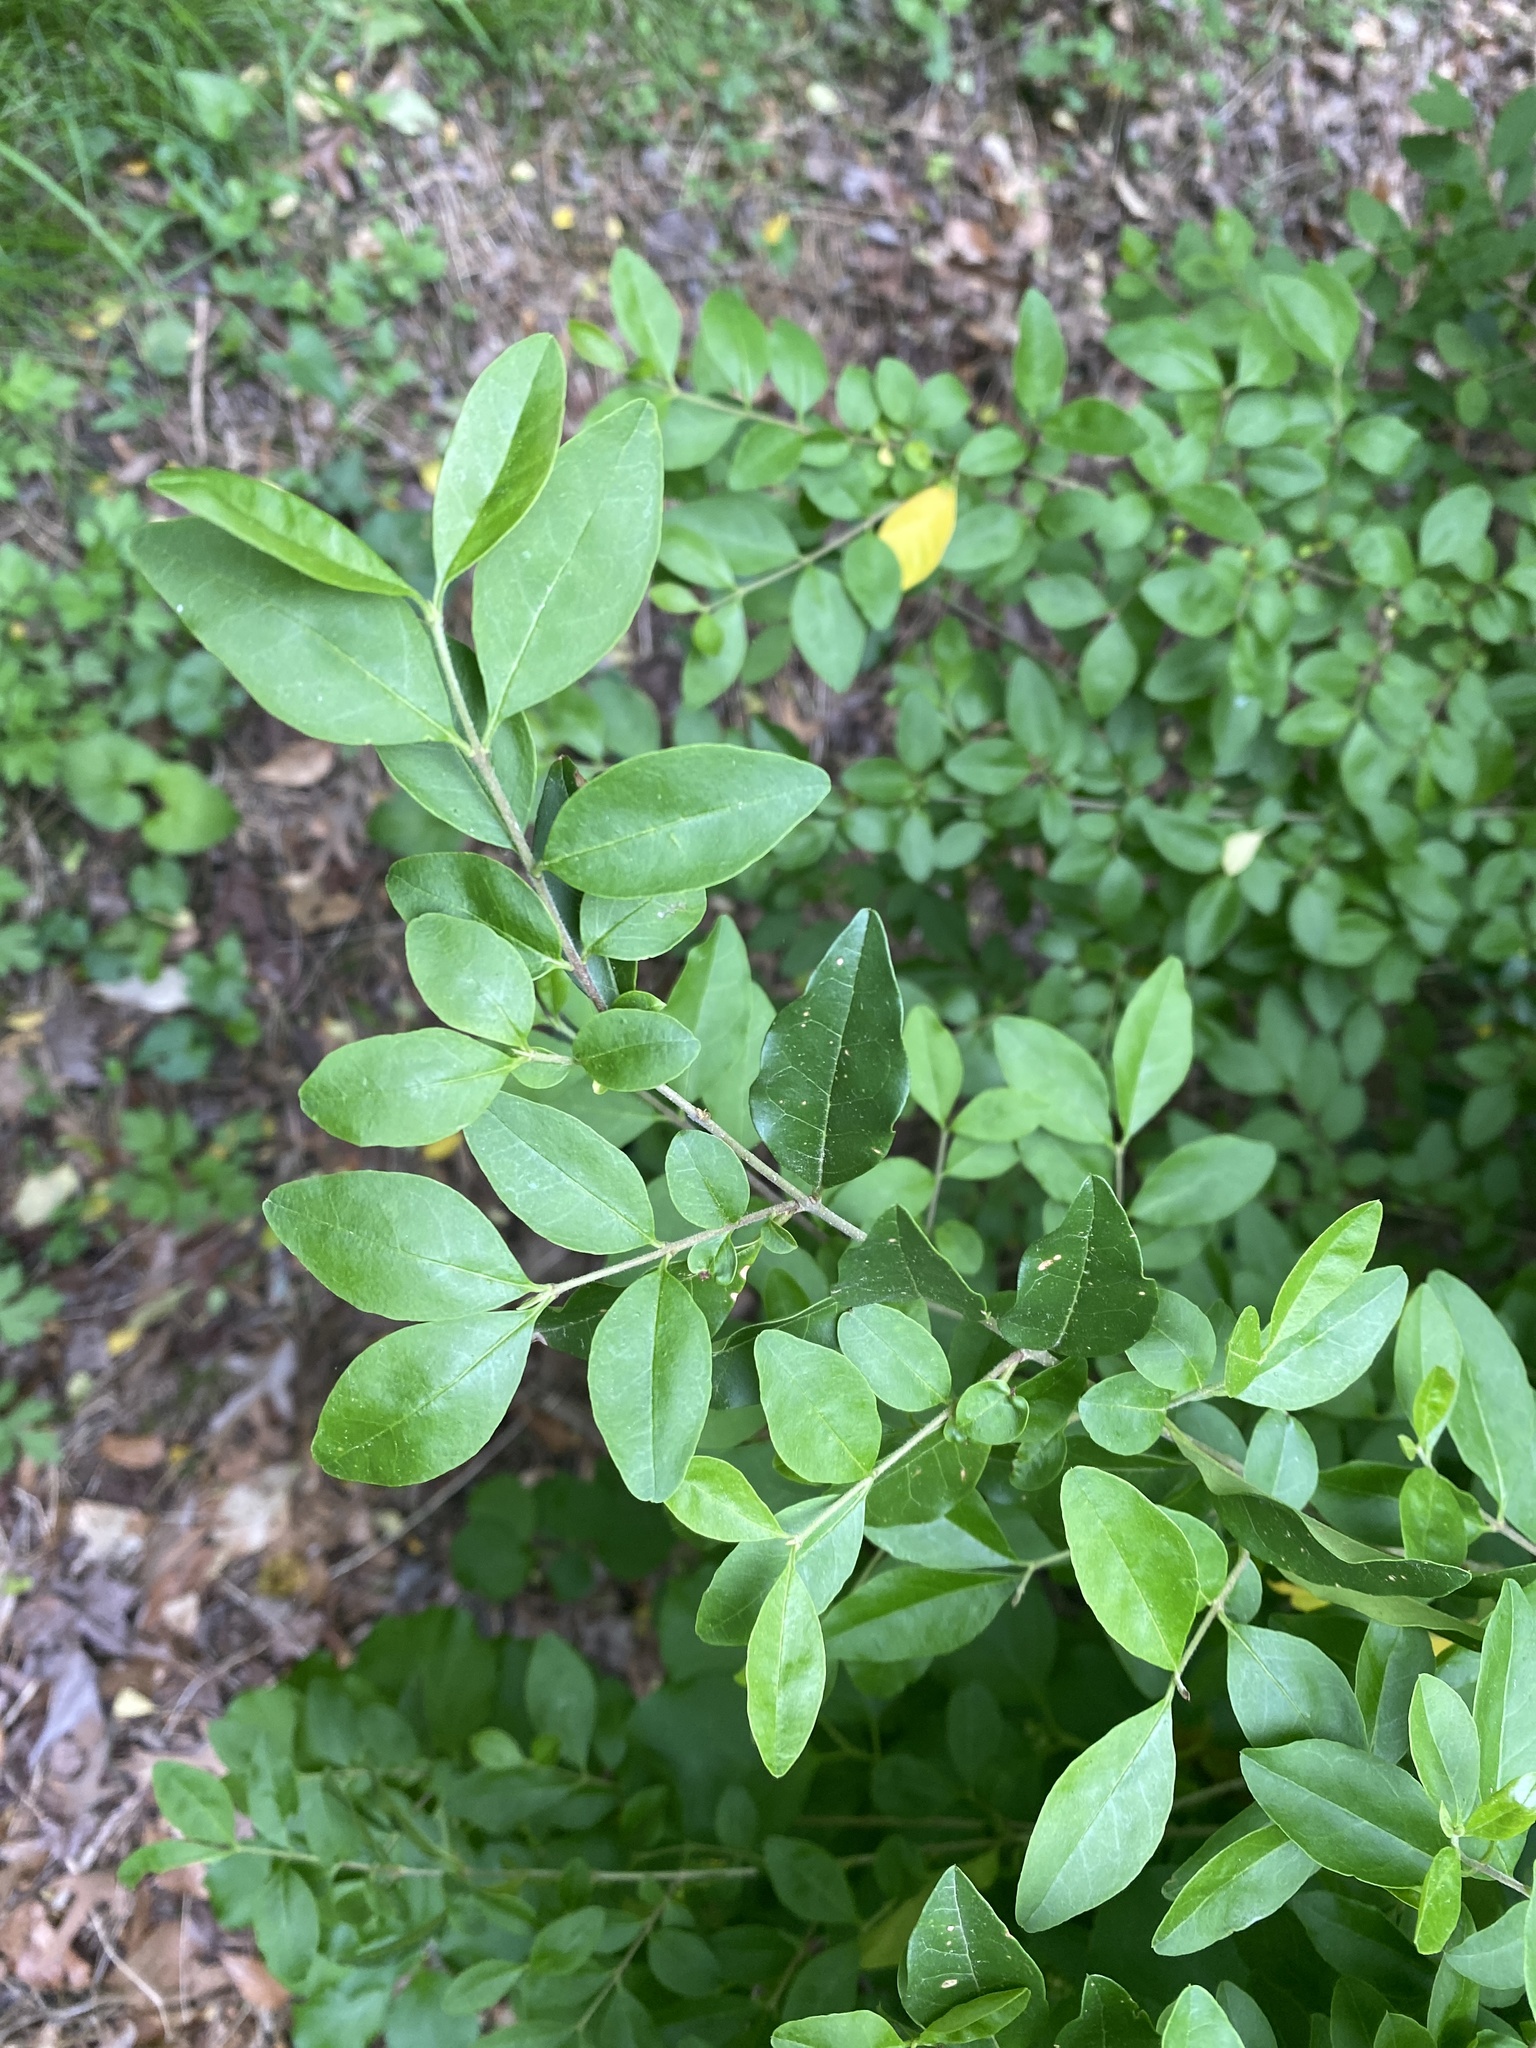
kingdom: Plantae
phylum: Tracheophyta
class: Magnoliopsida
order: Lamiales
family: Oleaceae
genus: Ligustrum
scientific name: Ligustrum sinense
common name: Chinese privet
